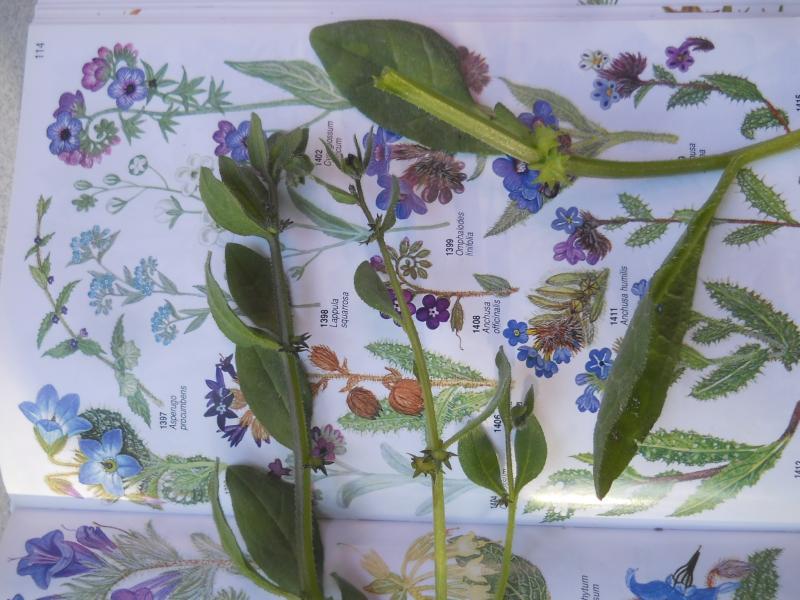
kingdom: Plantae
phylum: Tracheophyta
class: Magnoliopsida
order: Boraginales
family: Boraginaceae
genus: Asperugo
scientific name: Asperugo procumbens
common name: Madwort
